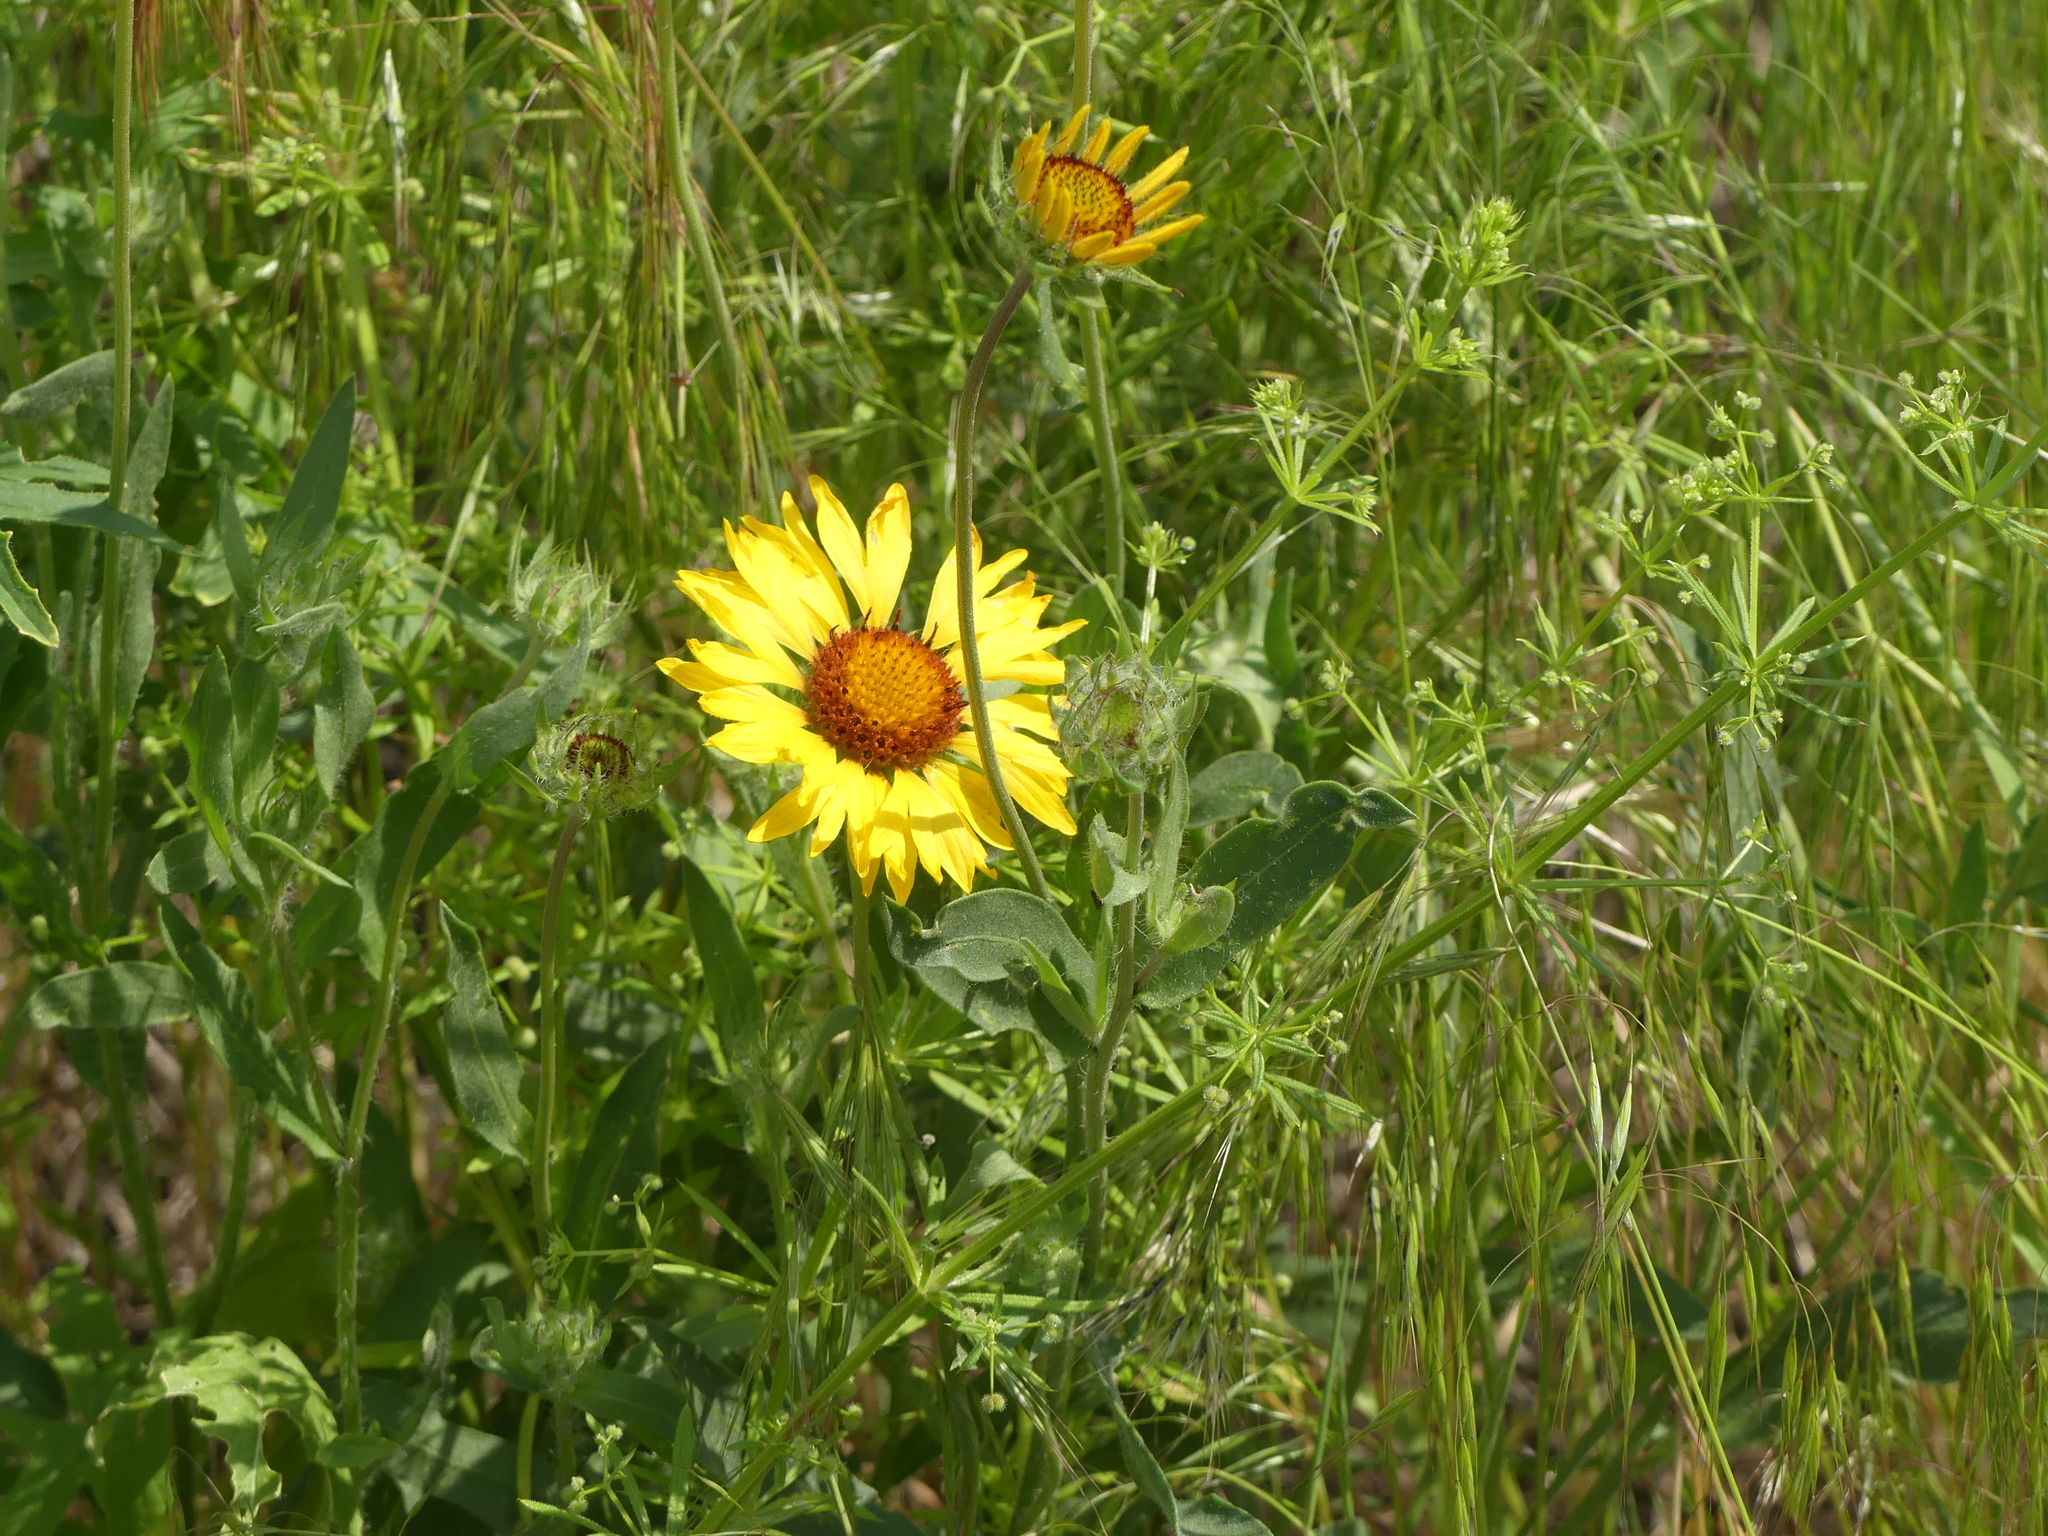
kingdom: Plantae
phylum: Tracheophyta
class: Magnoliopsida
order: Asterales
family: Asteraceae
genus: Gaillardia
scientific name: Gaillardia aristata
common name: Blanket-flower
